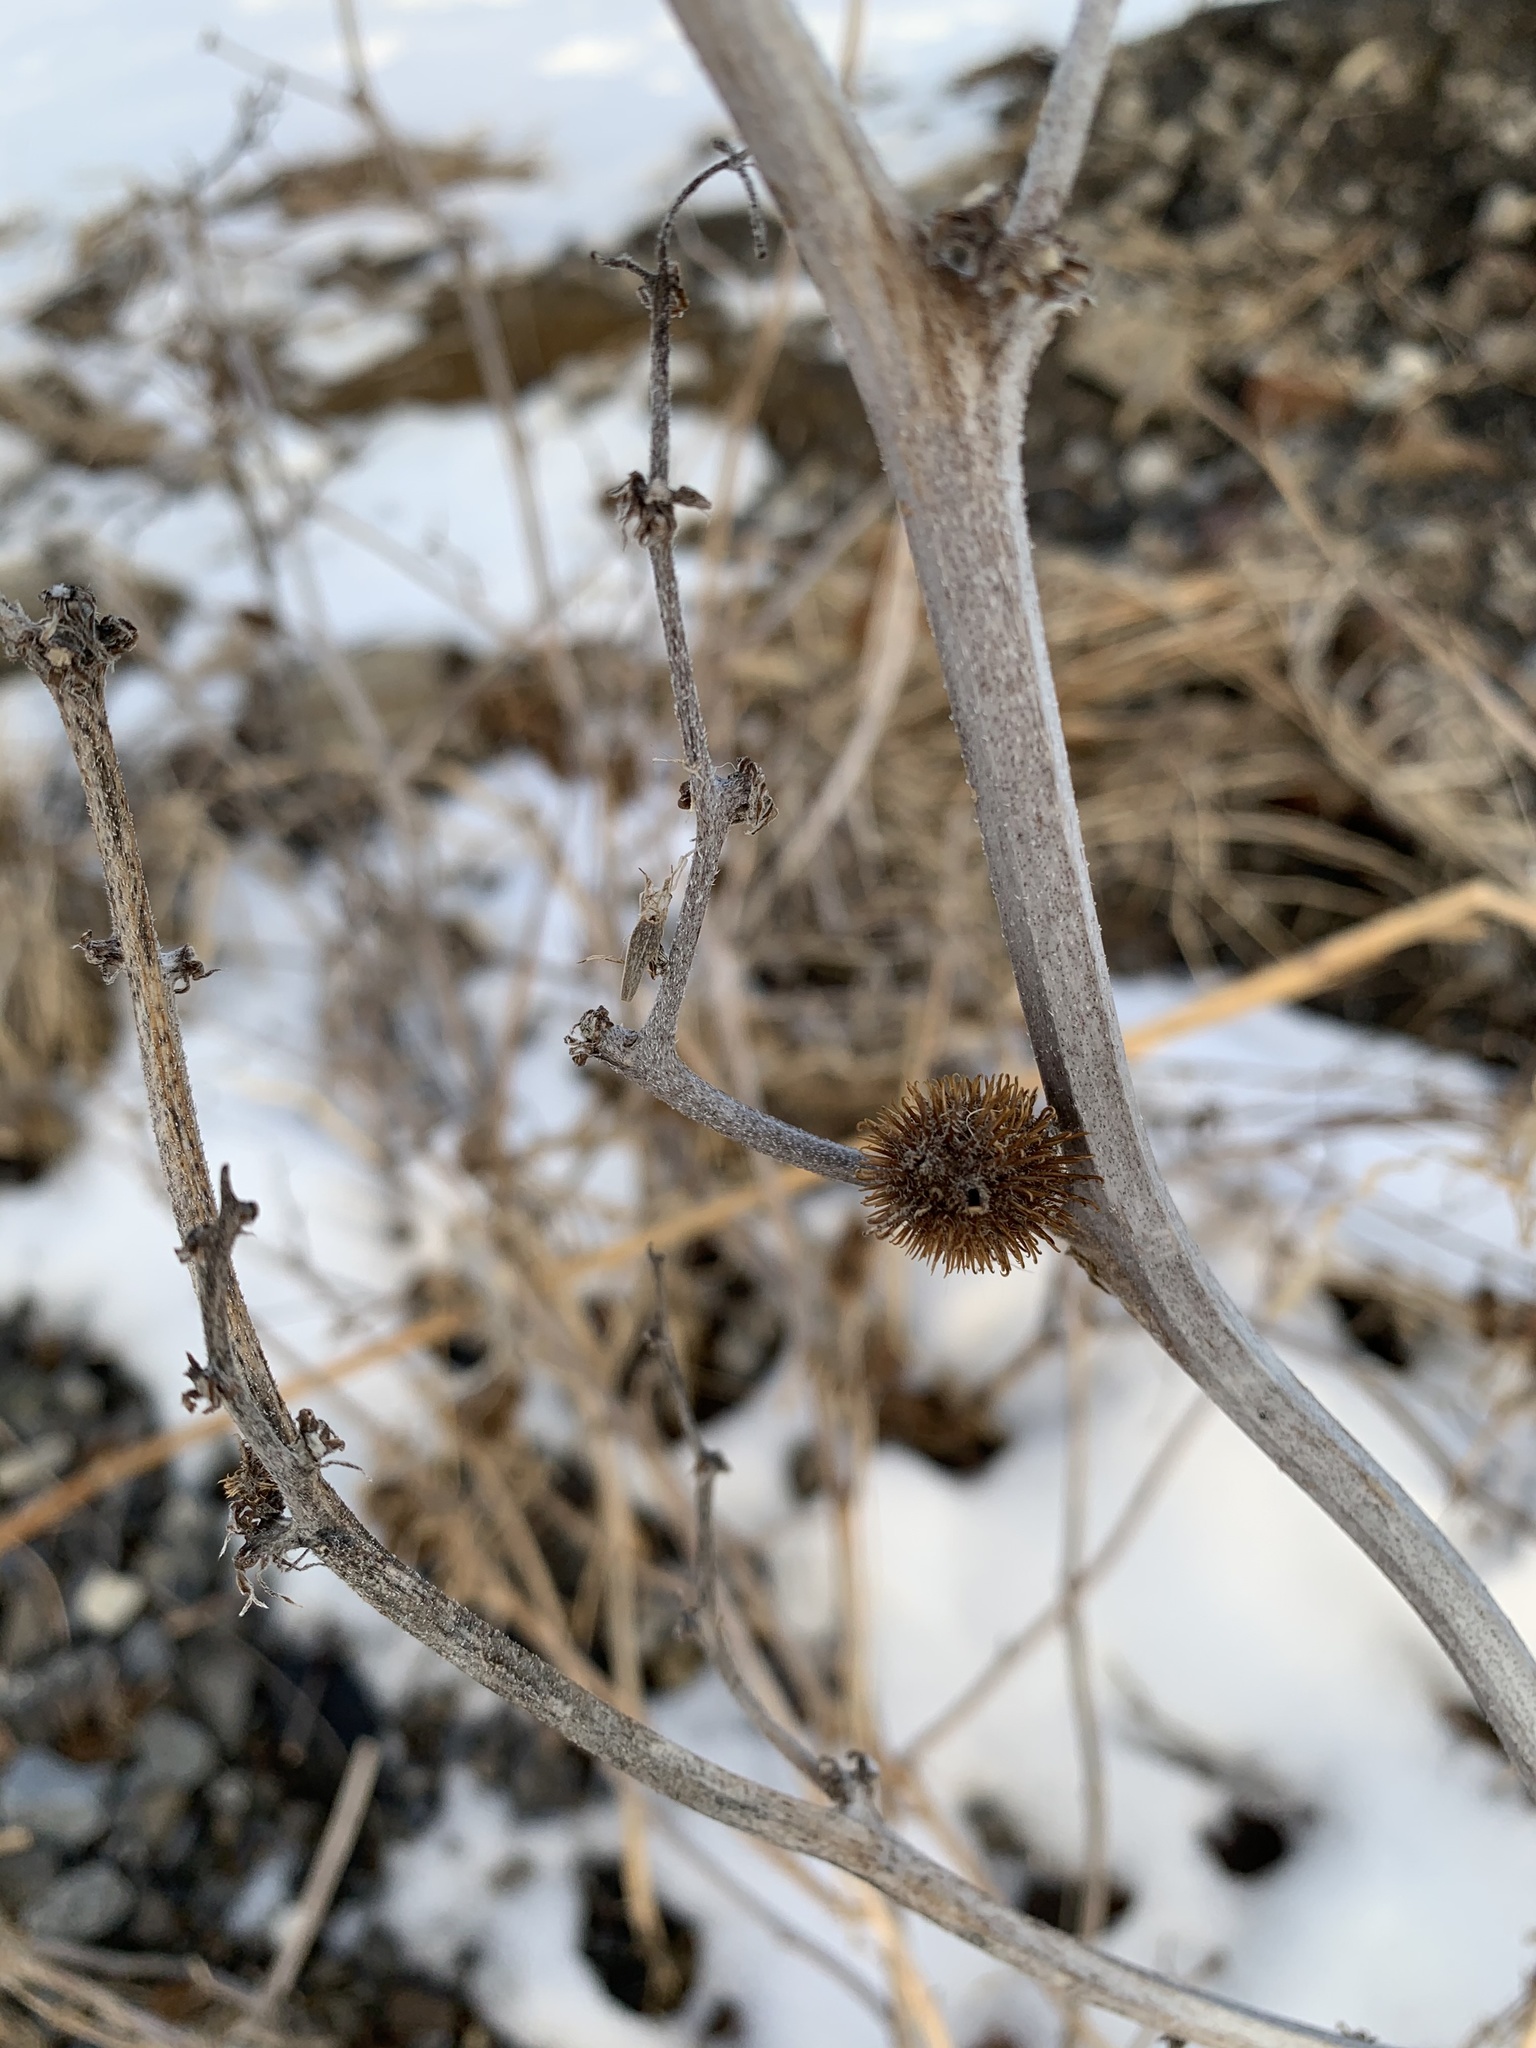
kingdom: Plantae
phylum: Tracheophyta
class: Magnoliopsida
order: Asterales
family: Asteraceae
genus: Xanthium
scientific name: Xanthium strumarium
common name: Rough cocklebur
